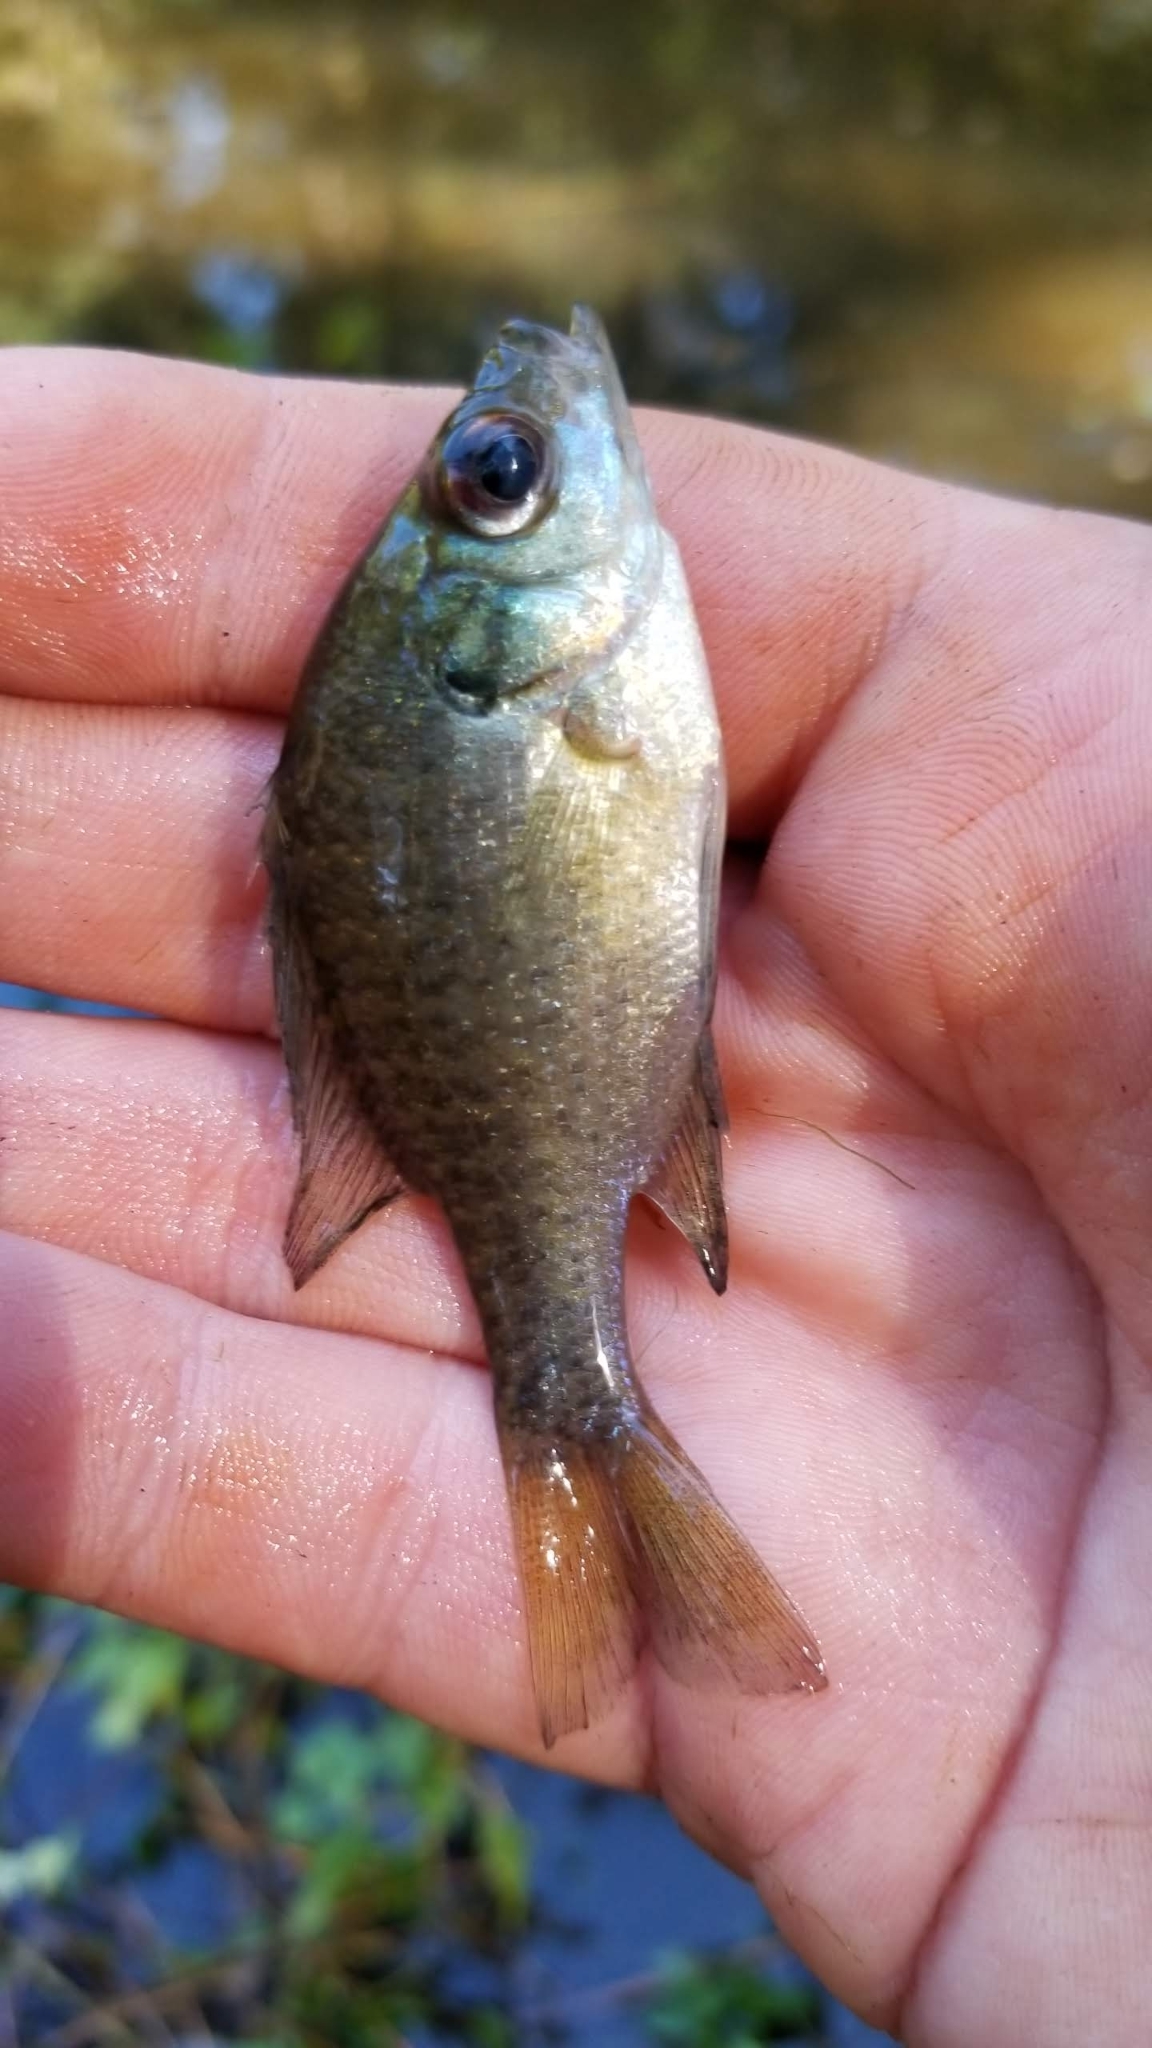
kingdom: Animalia
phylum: Chordata
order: Perciformes
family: Centrarchidae
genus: Lepomis
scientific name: Lepomis macrochirus
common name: Bluegill
